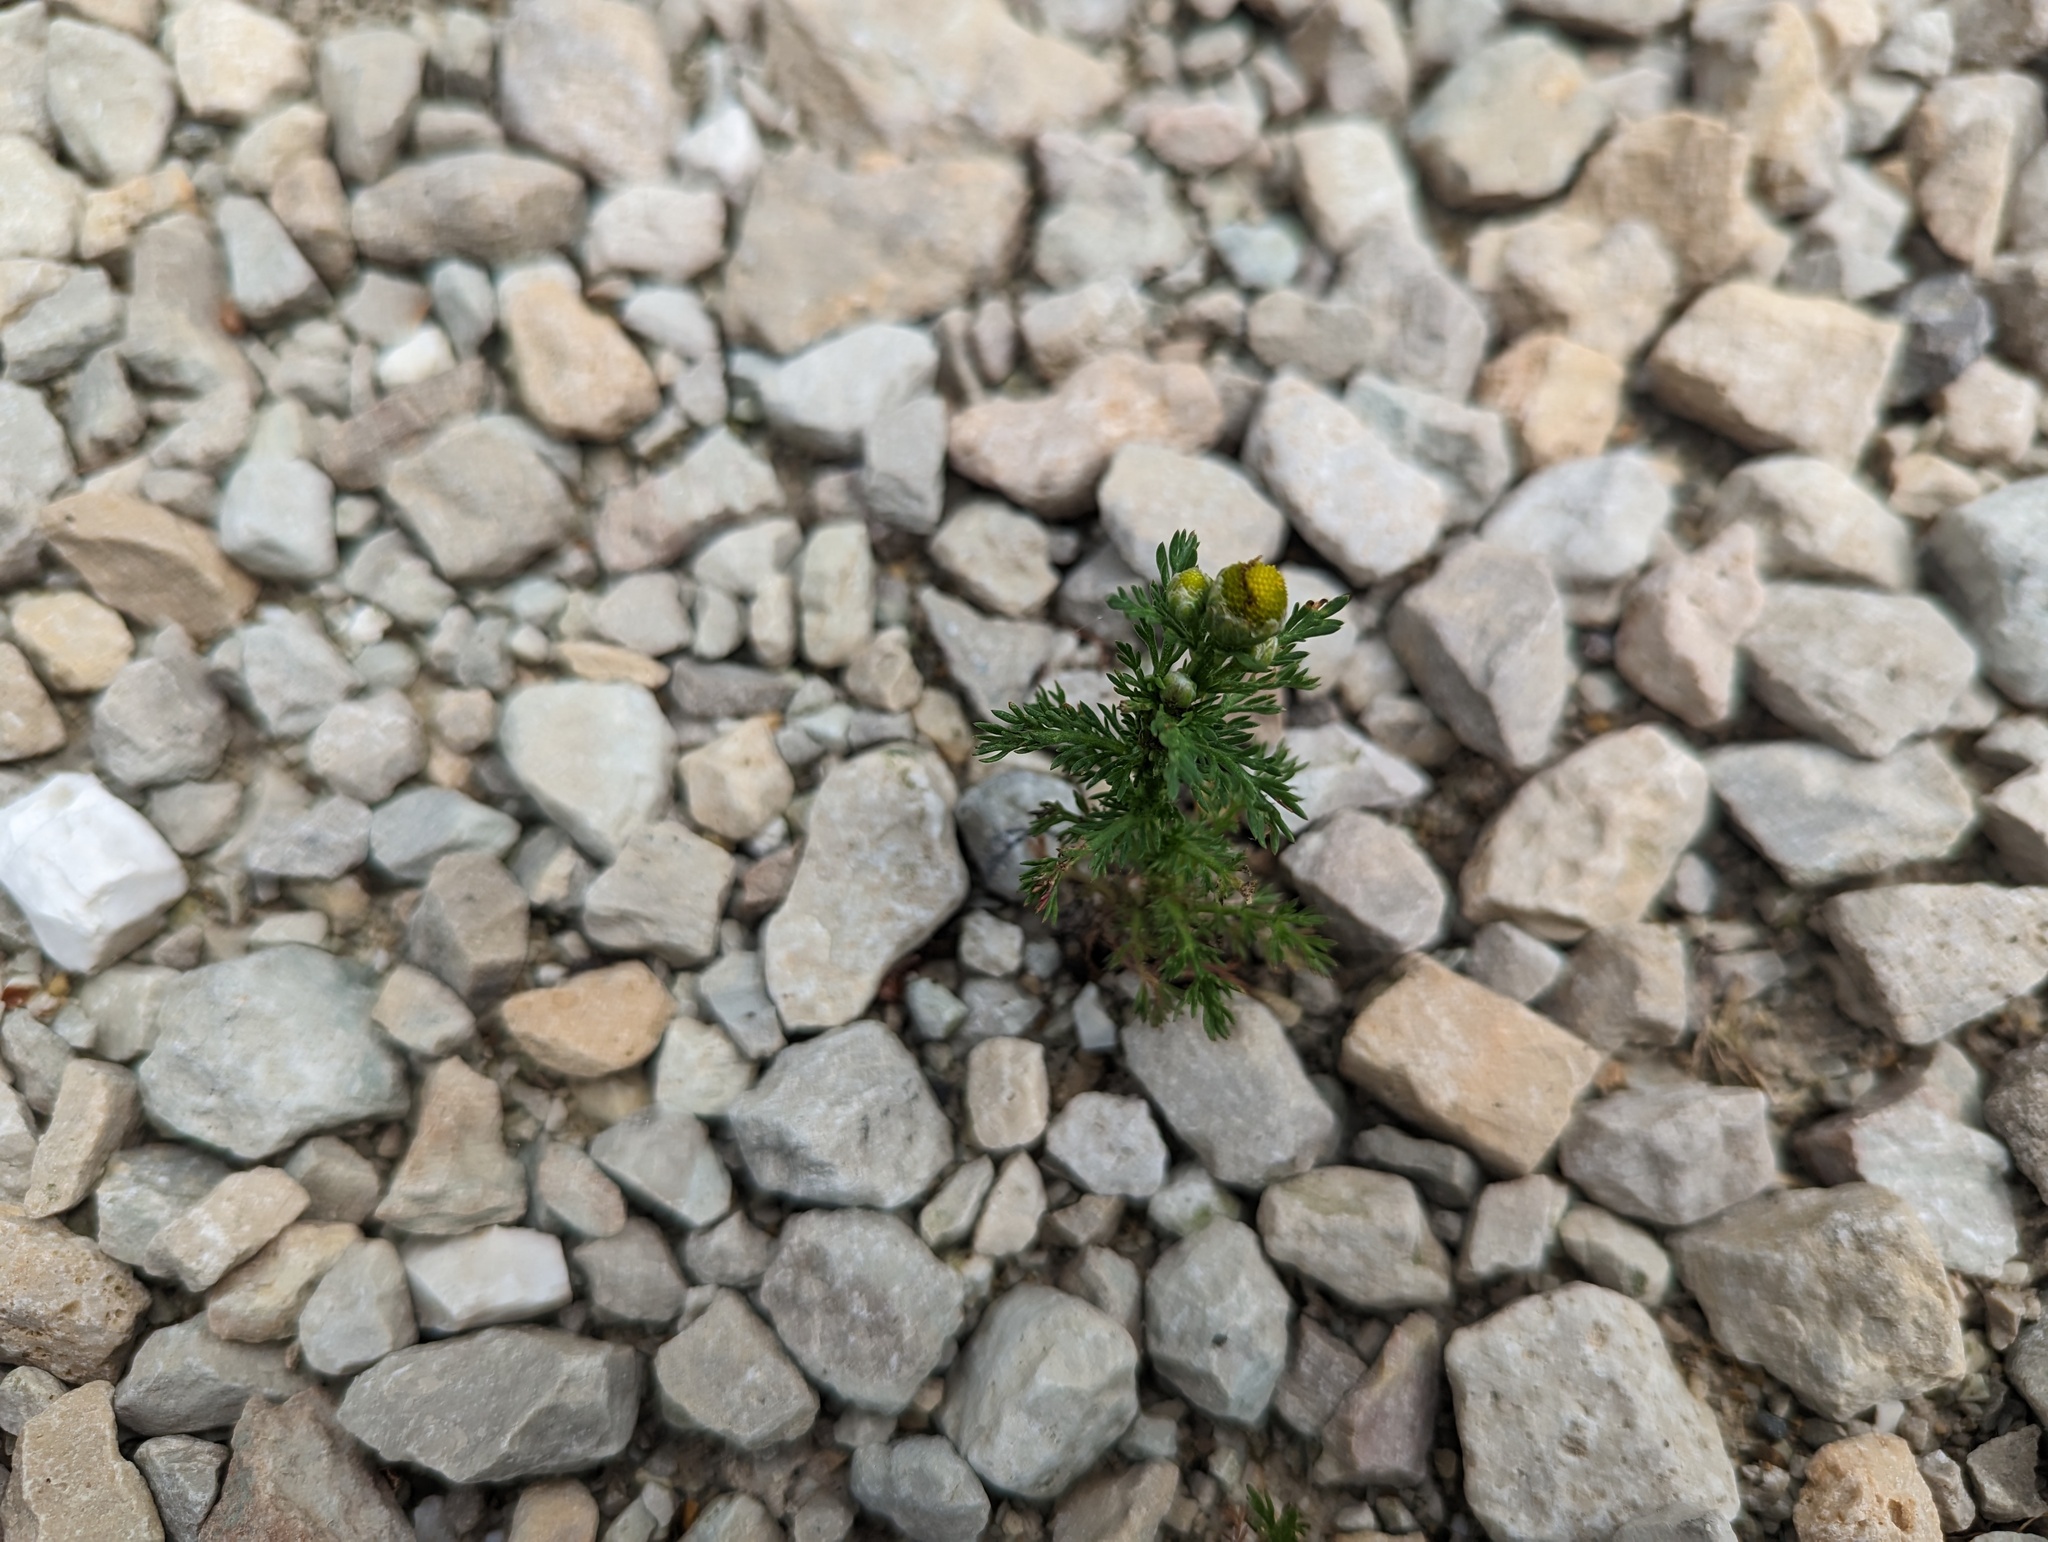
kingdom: Plantae
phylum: Tracheophyta
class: Magnoliopsida
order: Asterales
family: Asteraceae
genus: Matricaria
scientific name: Matricaria discoidea
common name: Disc mayweed
